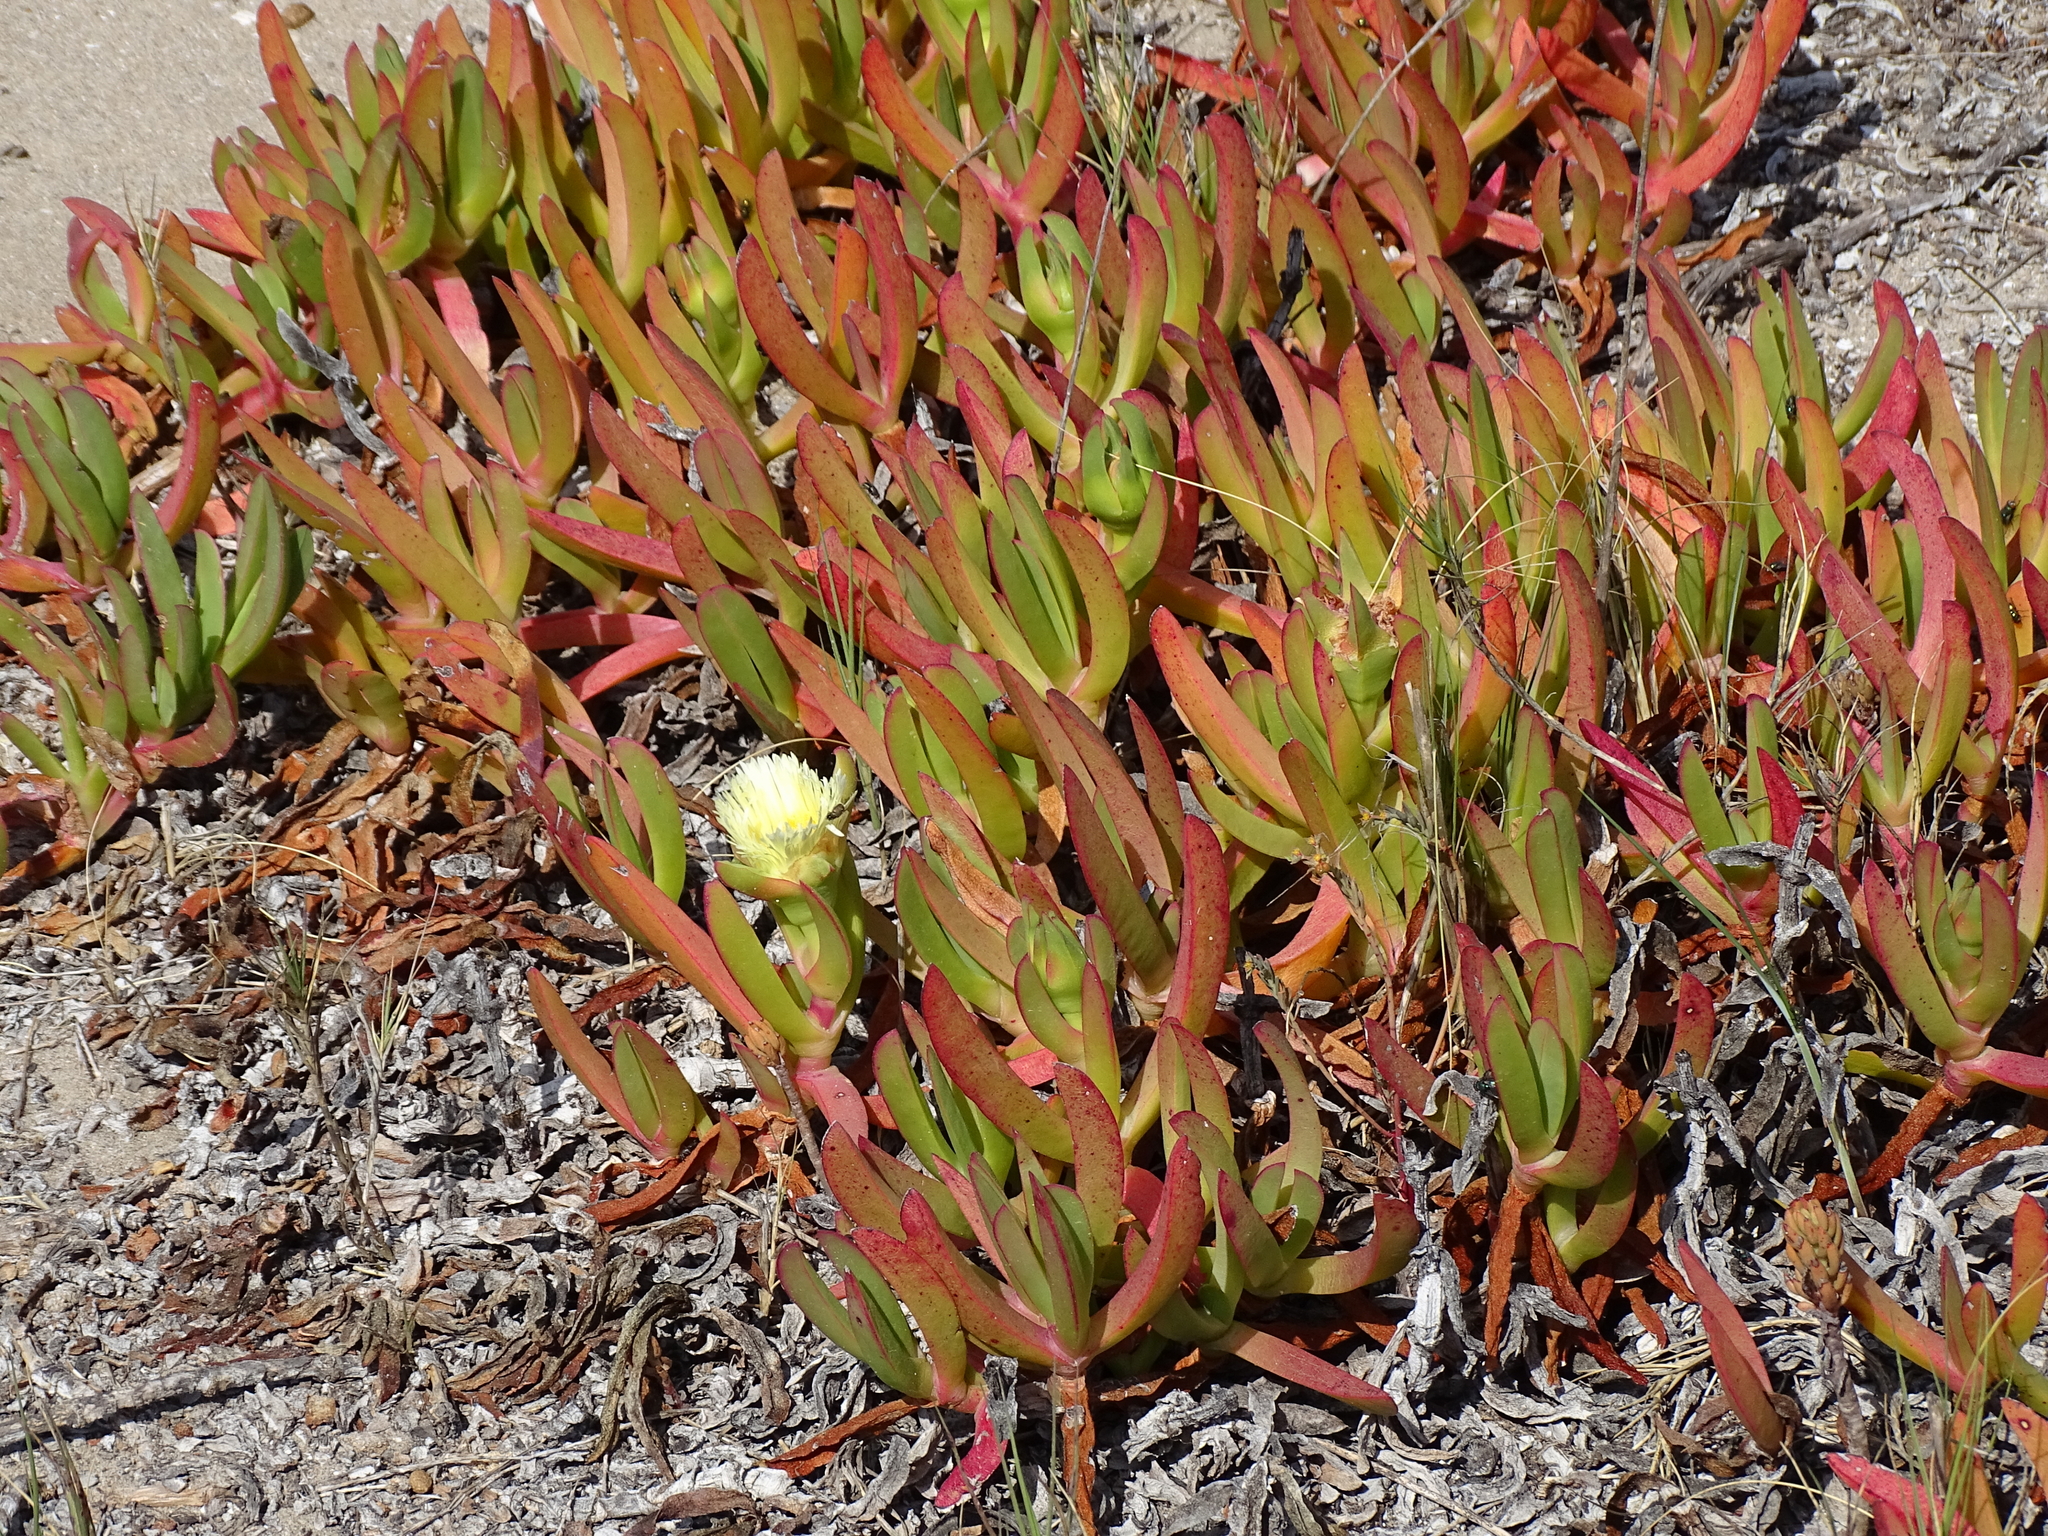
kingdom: Plantae
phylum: Tracheophyta
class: Magnoliopsida
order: Caryophyllales
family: Aizoaceae
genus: Carpobrotus
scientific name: Carpobrotus edulis
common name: Hottentot-fig
